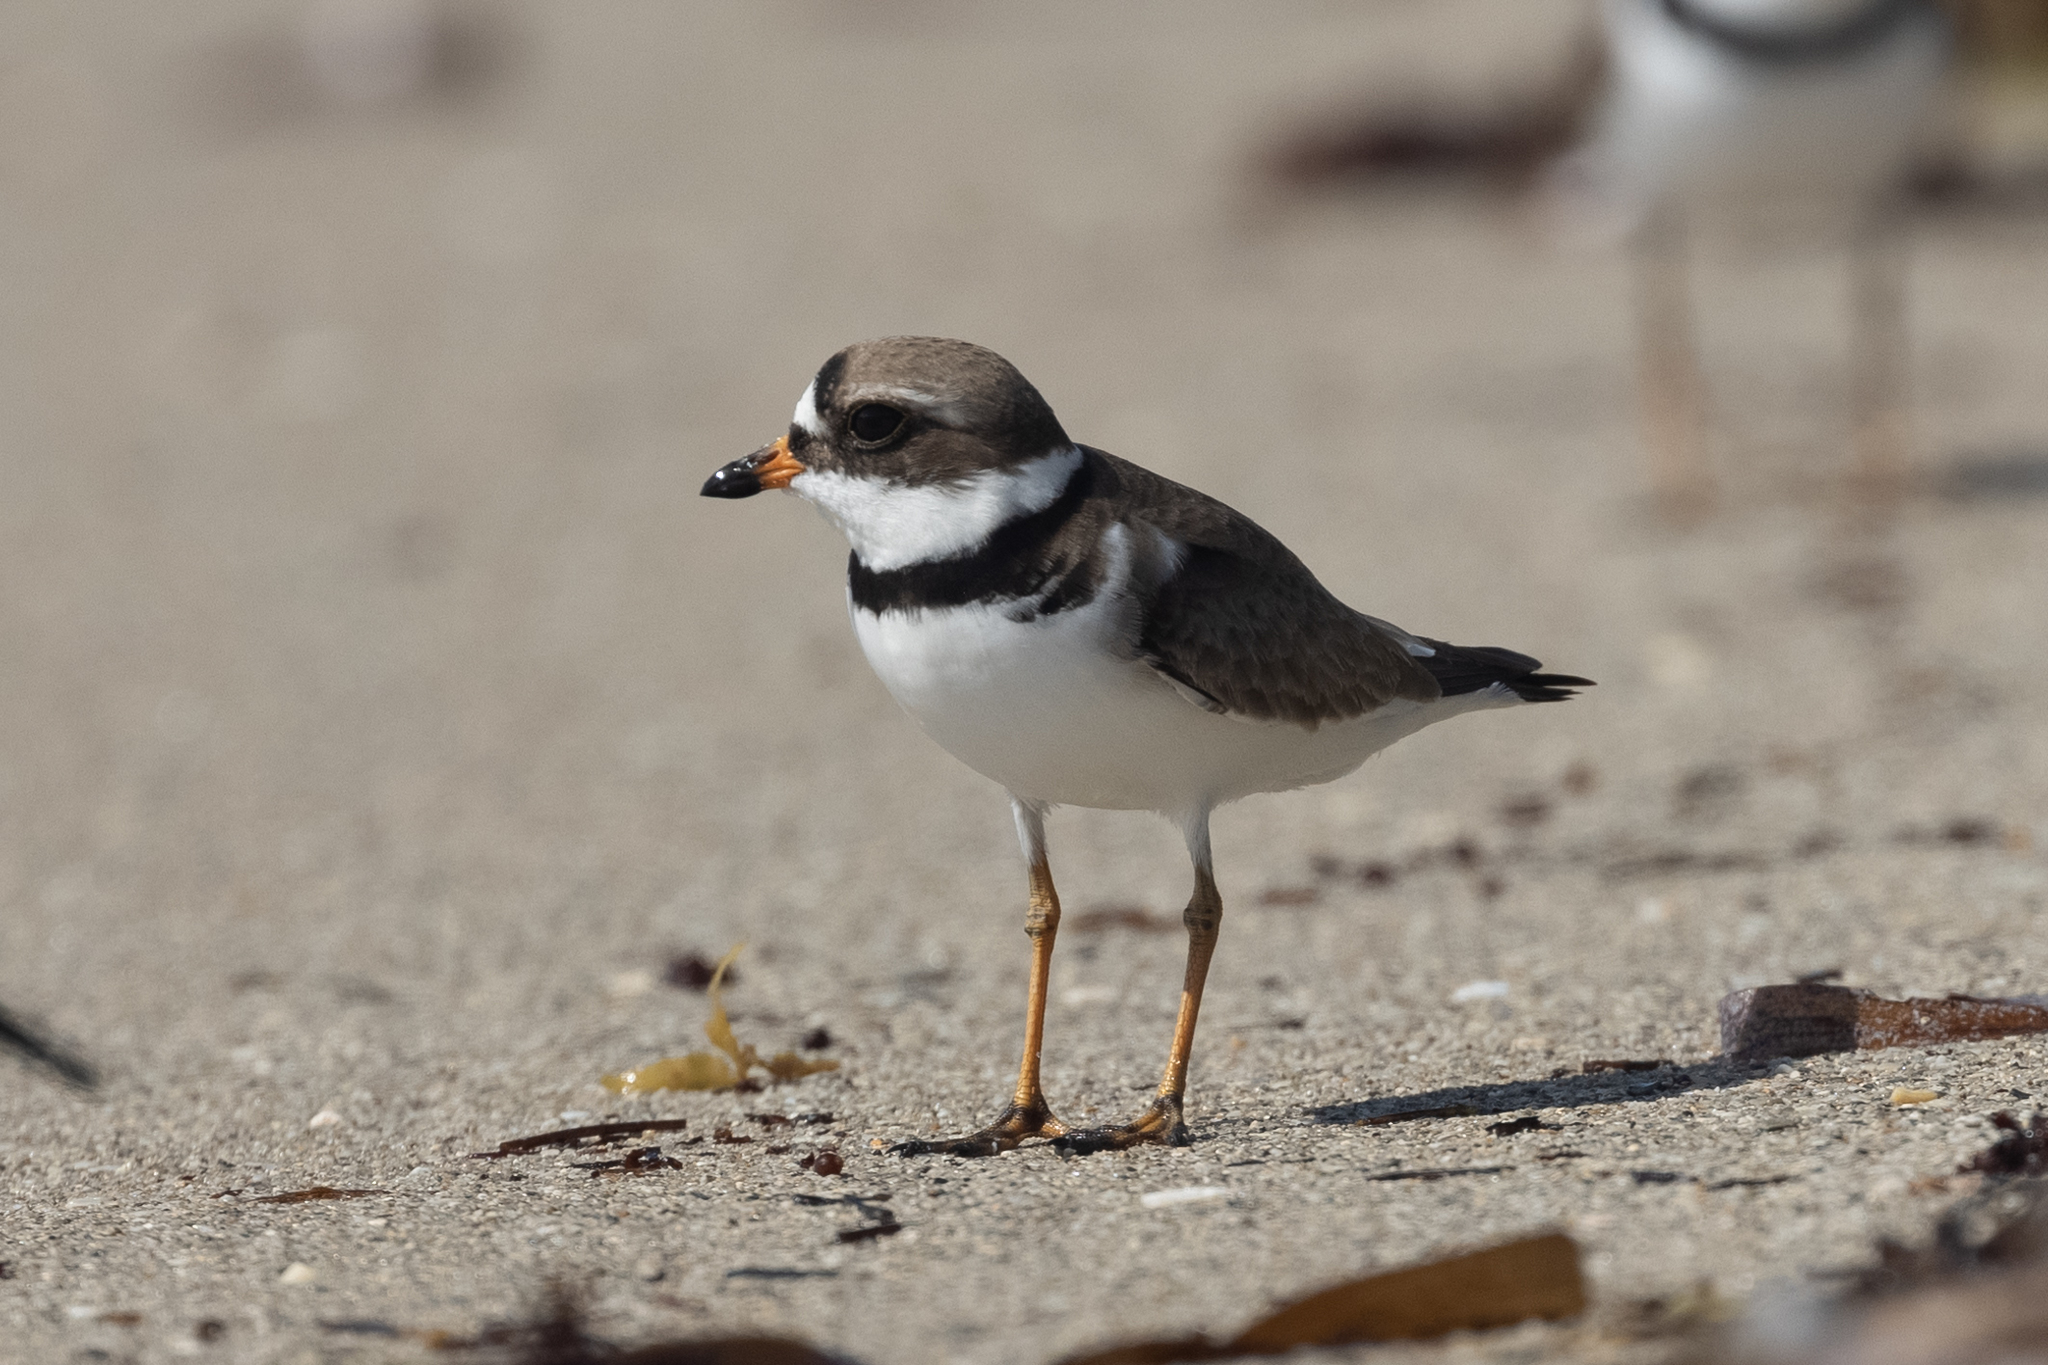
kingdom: Animalia
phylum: Chordata
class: Aves
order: Charadriiformes
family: Charadriidae
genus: Charadrius
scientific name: Charadrius semipalmatus
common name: Semipalmated plover
